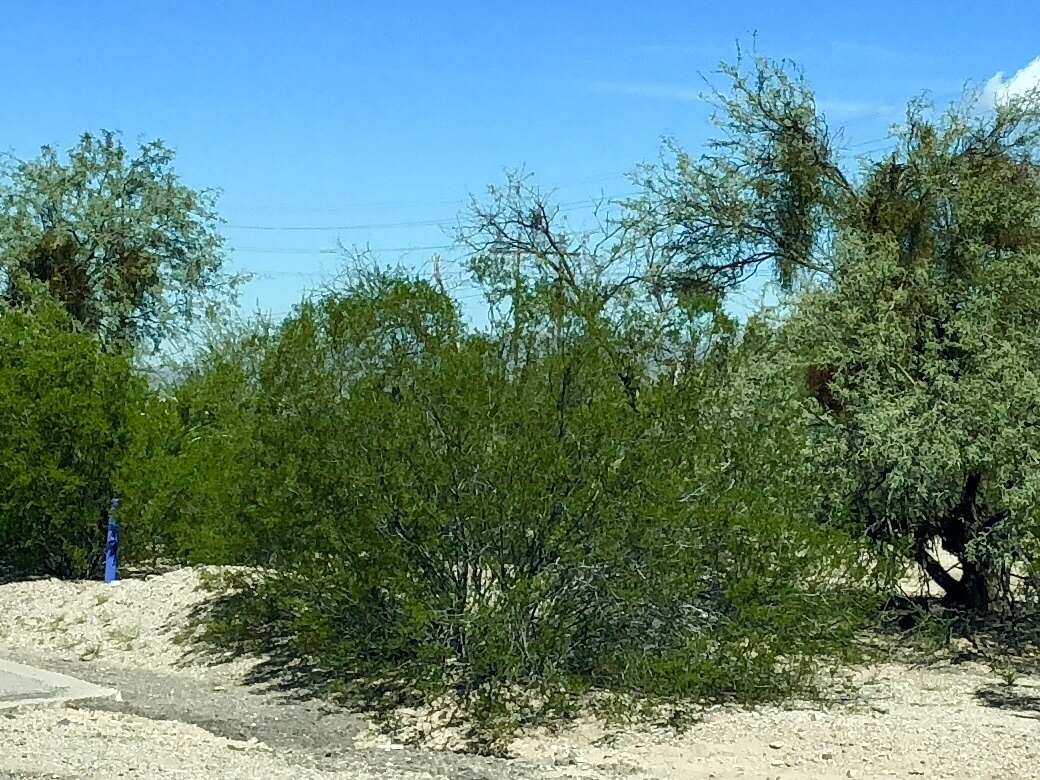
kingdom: Plantae
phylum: Tracheophyta
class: Magnoliopsida
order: Zygophyllales
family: Zygophyllaceae
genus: Larrea
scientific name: Larrea tridentata
